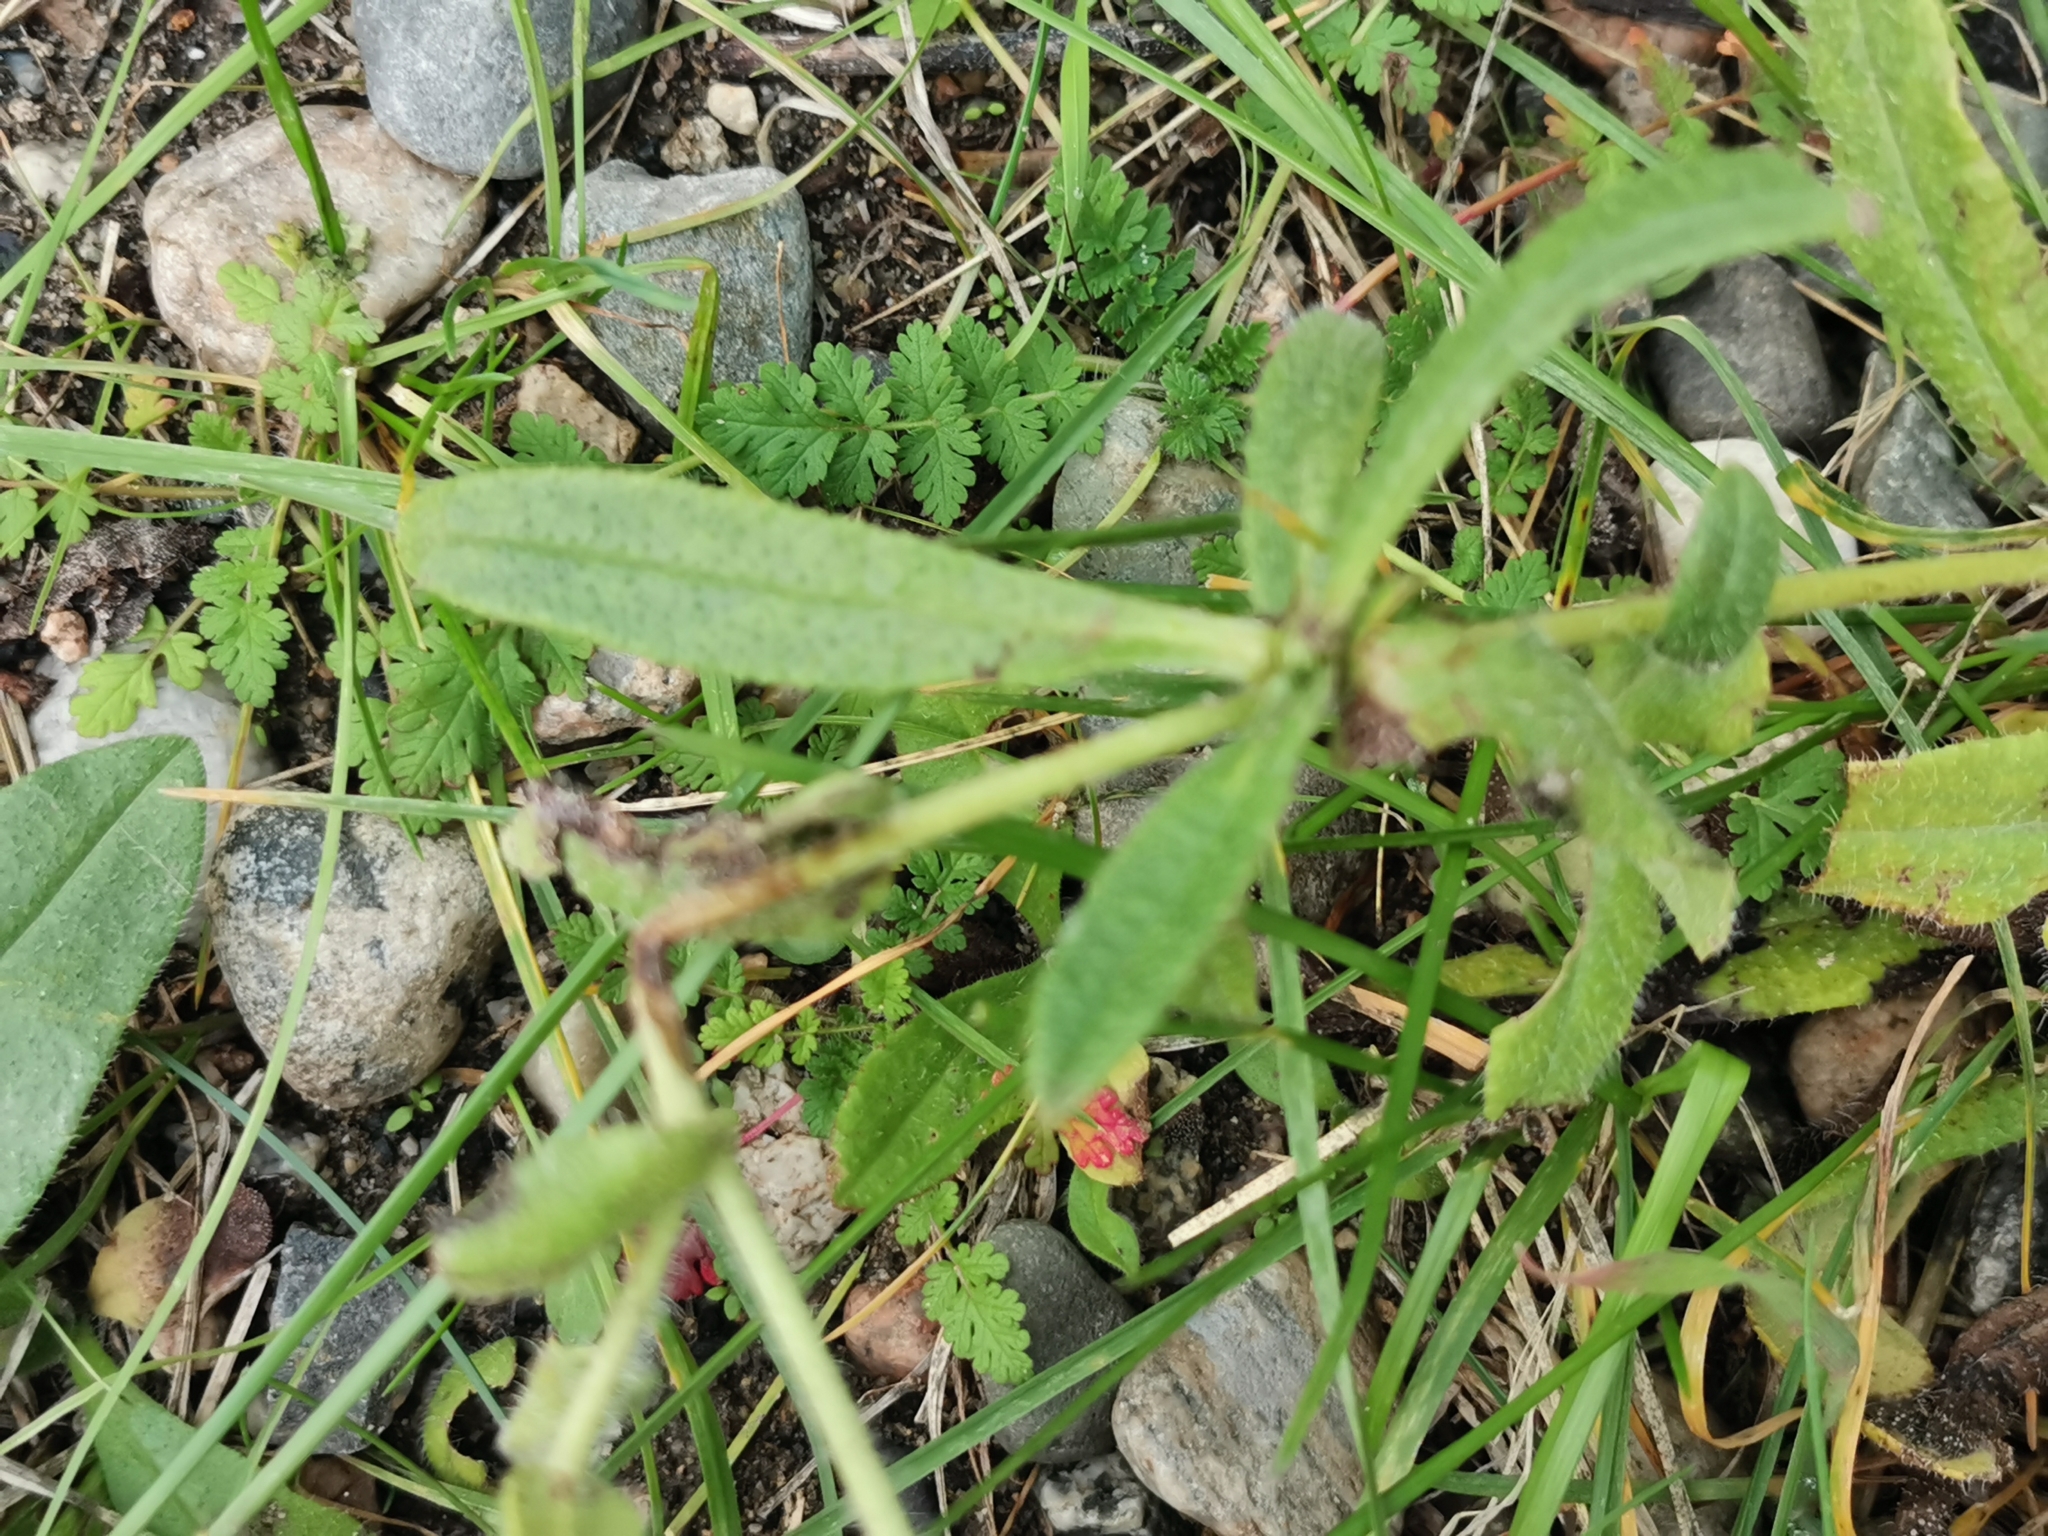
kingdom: Plantae
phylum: Tracheophyta
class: Magnoliopsida
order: Boraginales
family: Boraginaceae
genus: Anchusa
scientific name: Anchusa officinalis
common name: Alkanet
